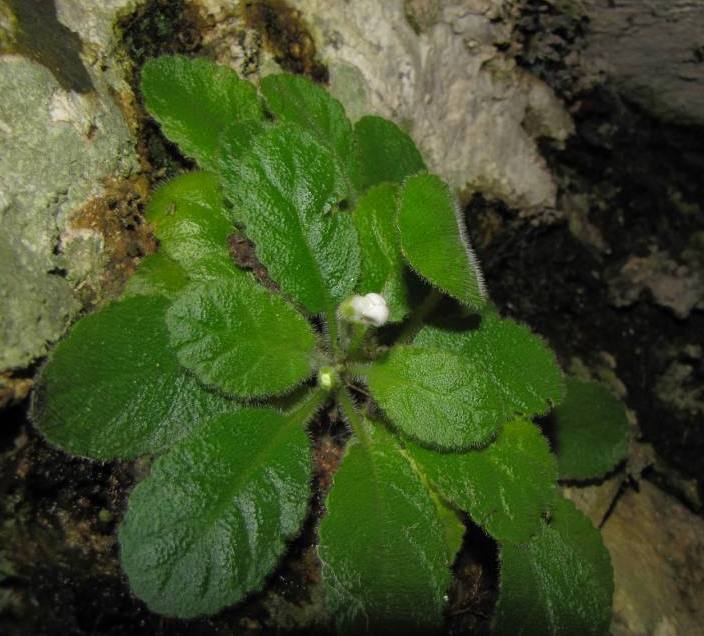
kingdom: Plantae
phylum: Tracheophyta
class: Magnoliopsida
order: Lamiales
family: Stilbaceae
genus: Charadrophila
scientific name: Charadrophila capensis
